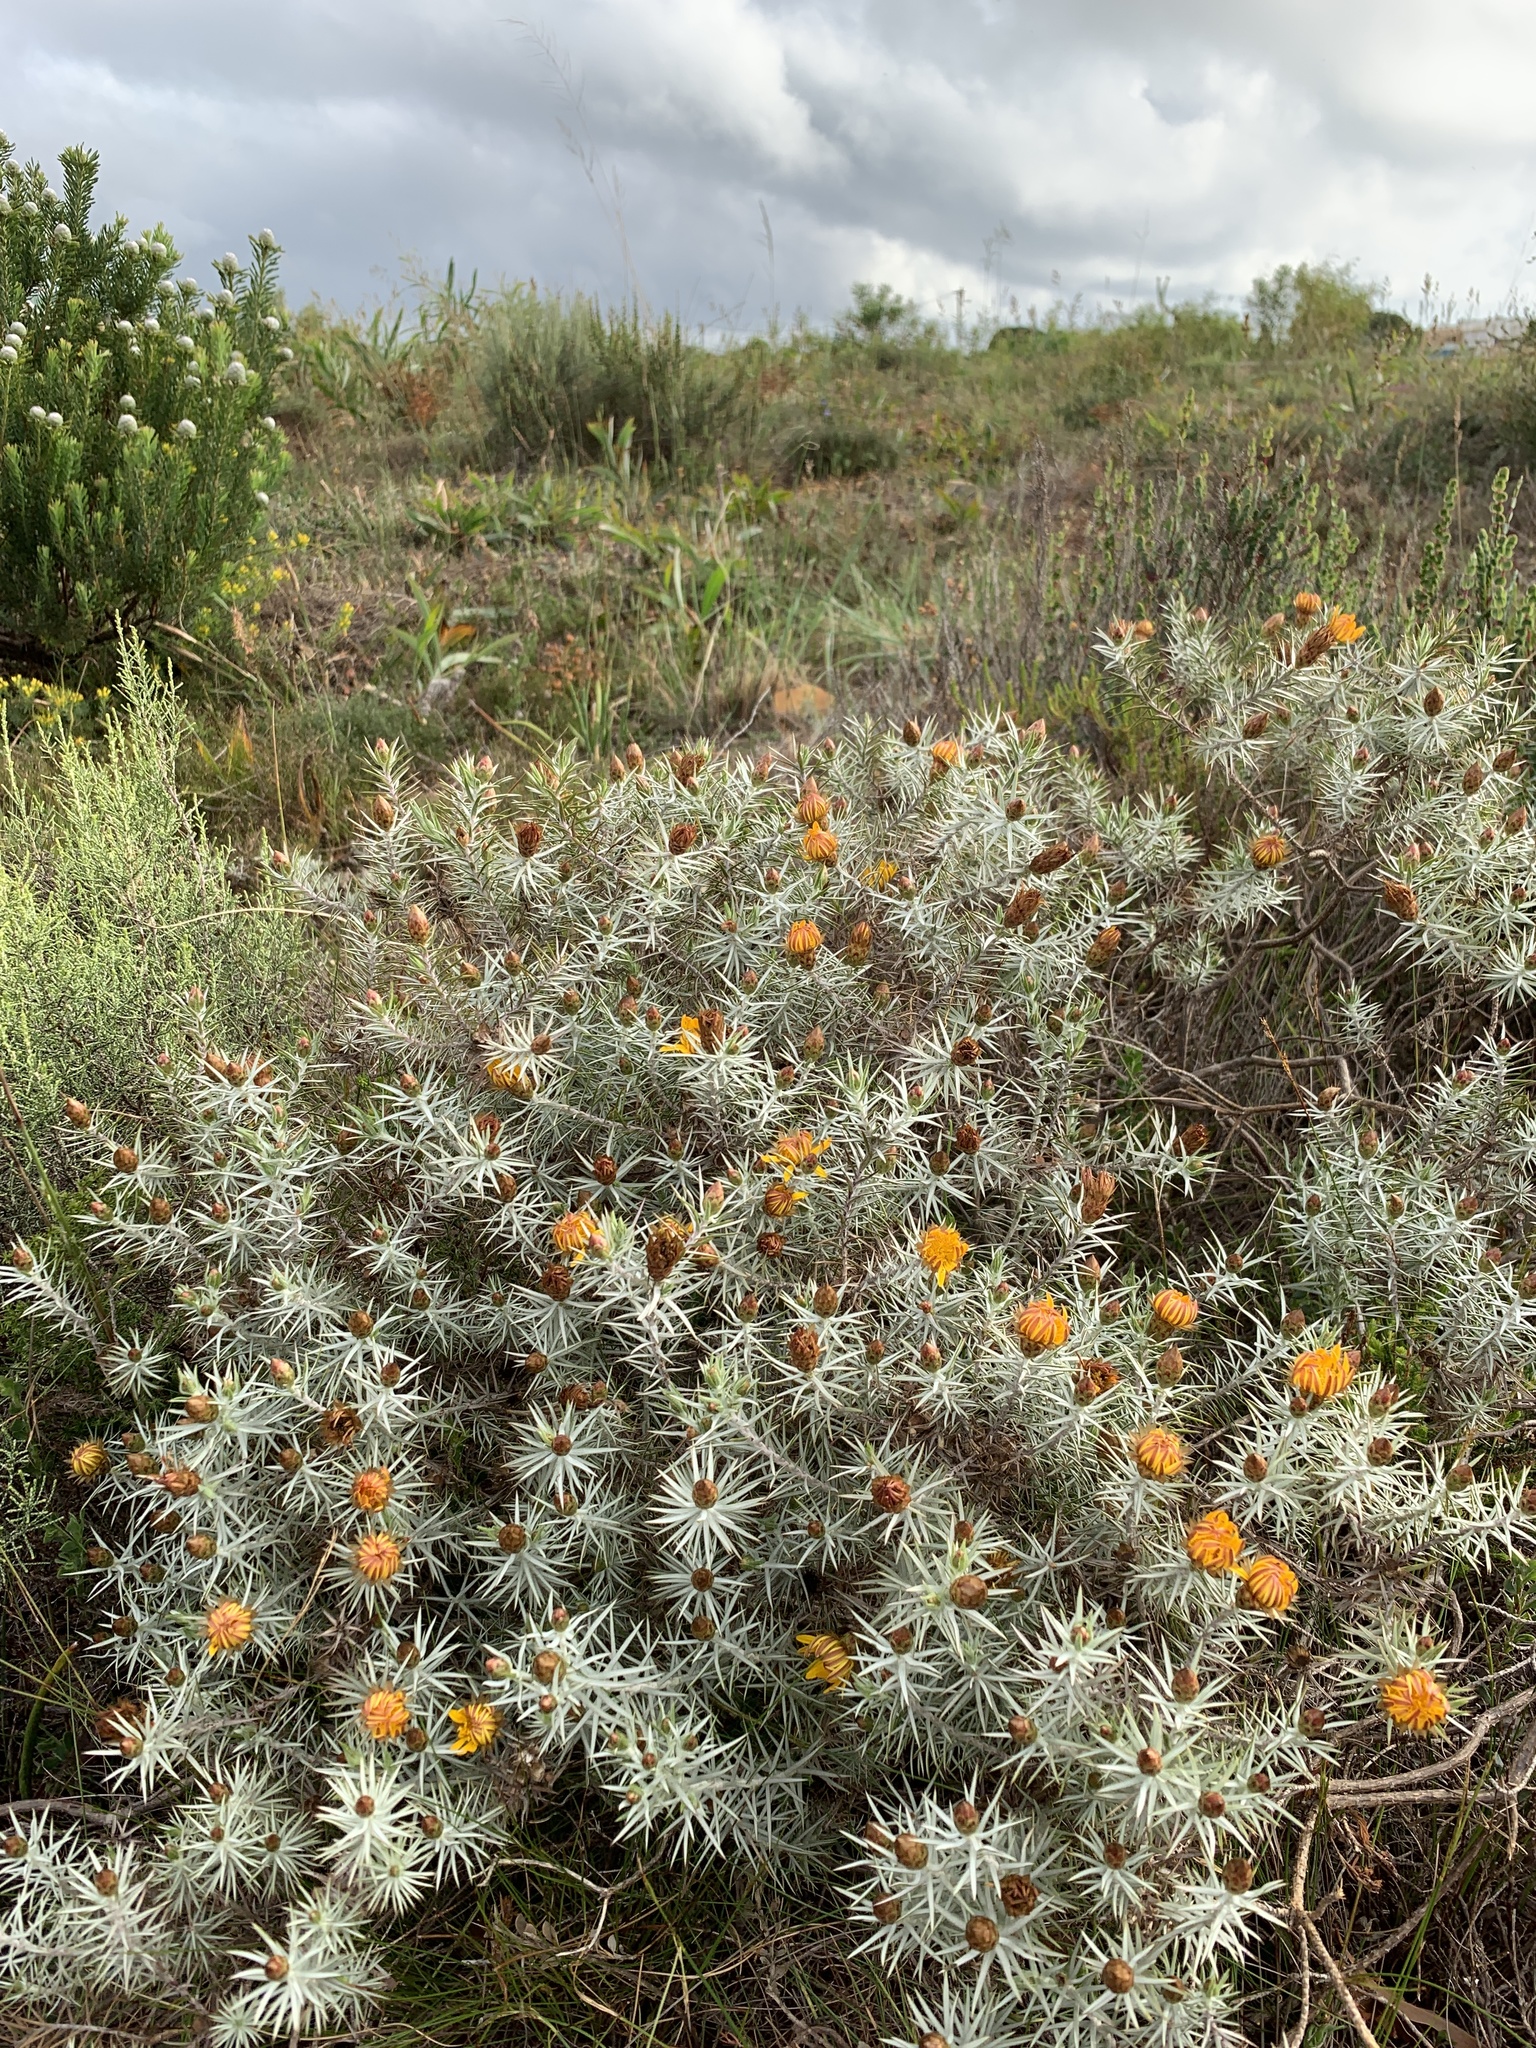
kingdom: Plantae
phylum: Tracheophyta
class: Magnoliopsida
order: Asterales
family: Asteraceae
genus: Oedera
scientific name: Oedera pungens
